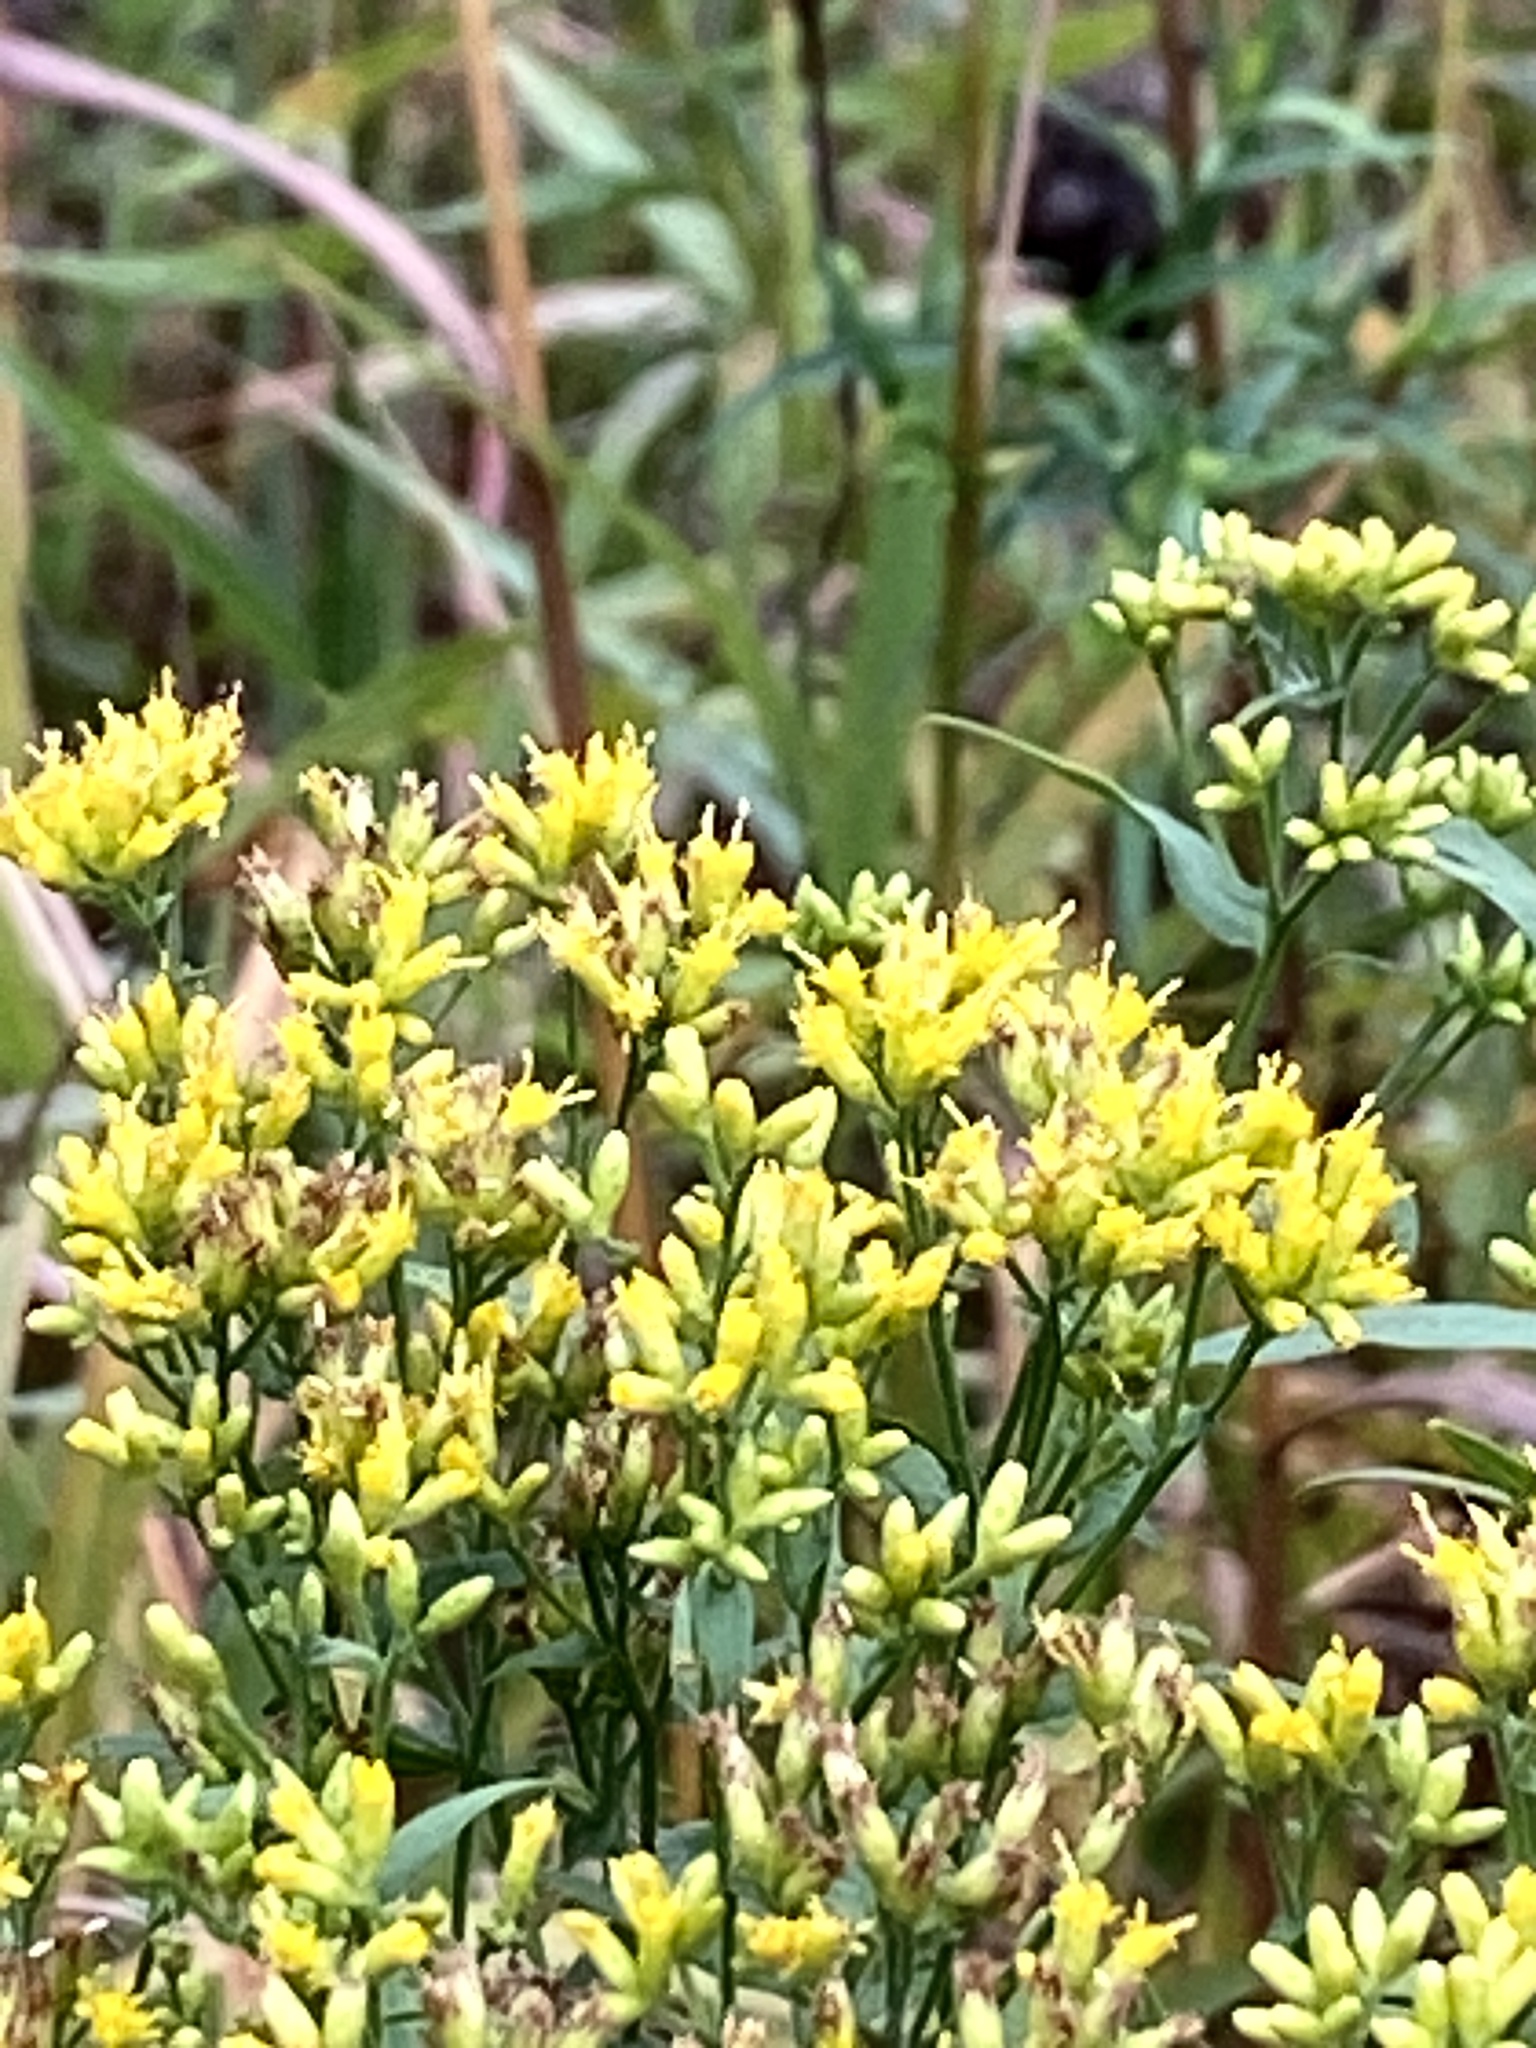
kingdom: Plantae
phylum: Tracheophyta
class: Magnoliopsida
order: Asterales
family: Asteraceae
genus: Euthamia
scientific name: Euthamia graminifolia
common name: Common goldentop
